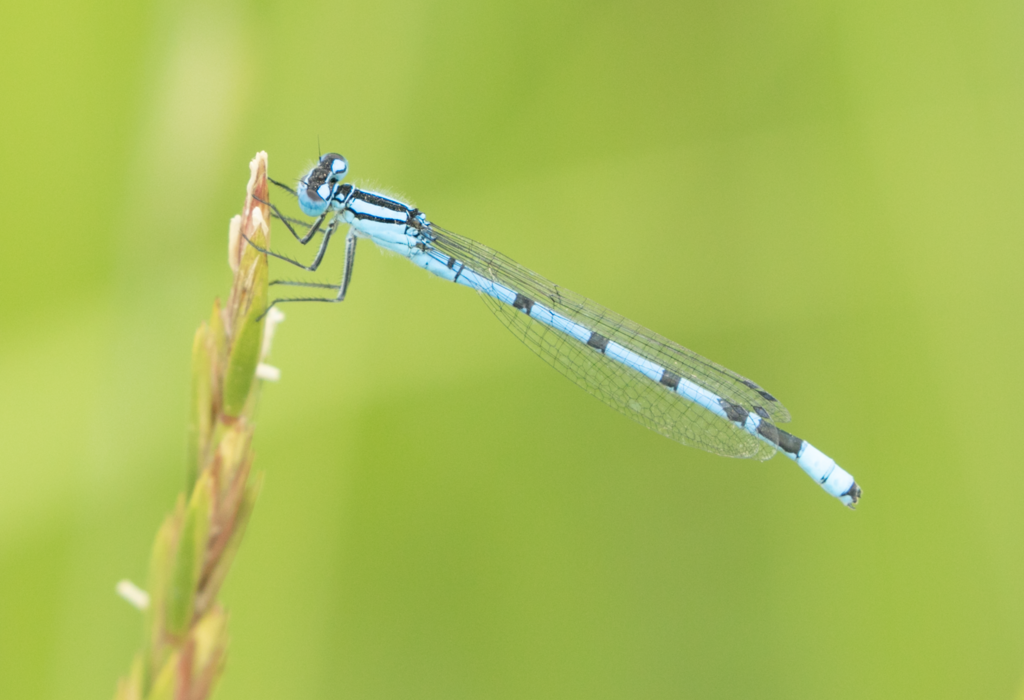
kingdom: Animalia
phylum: Arthropoda
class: Insecta
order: Odonata
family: Coenagrionidae
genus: Enallagma
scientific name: Enallagma cyathigerum
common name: Common blue damselfly
